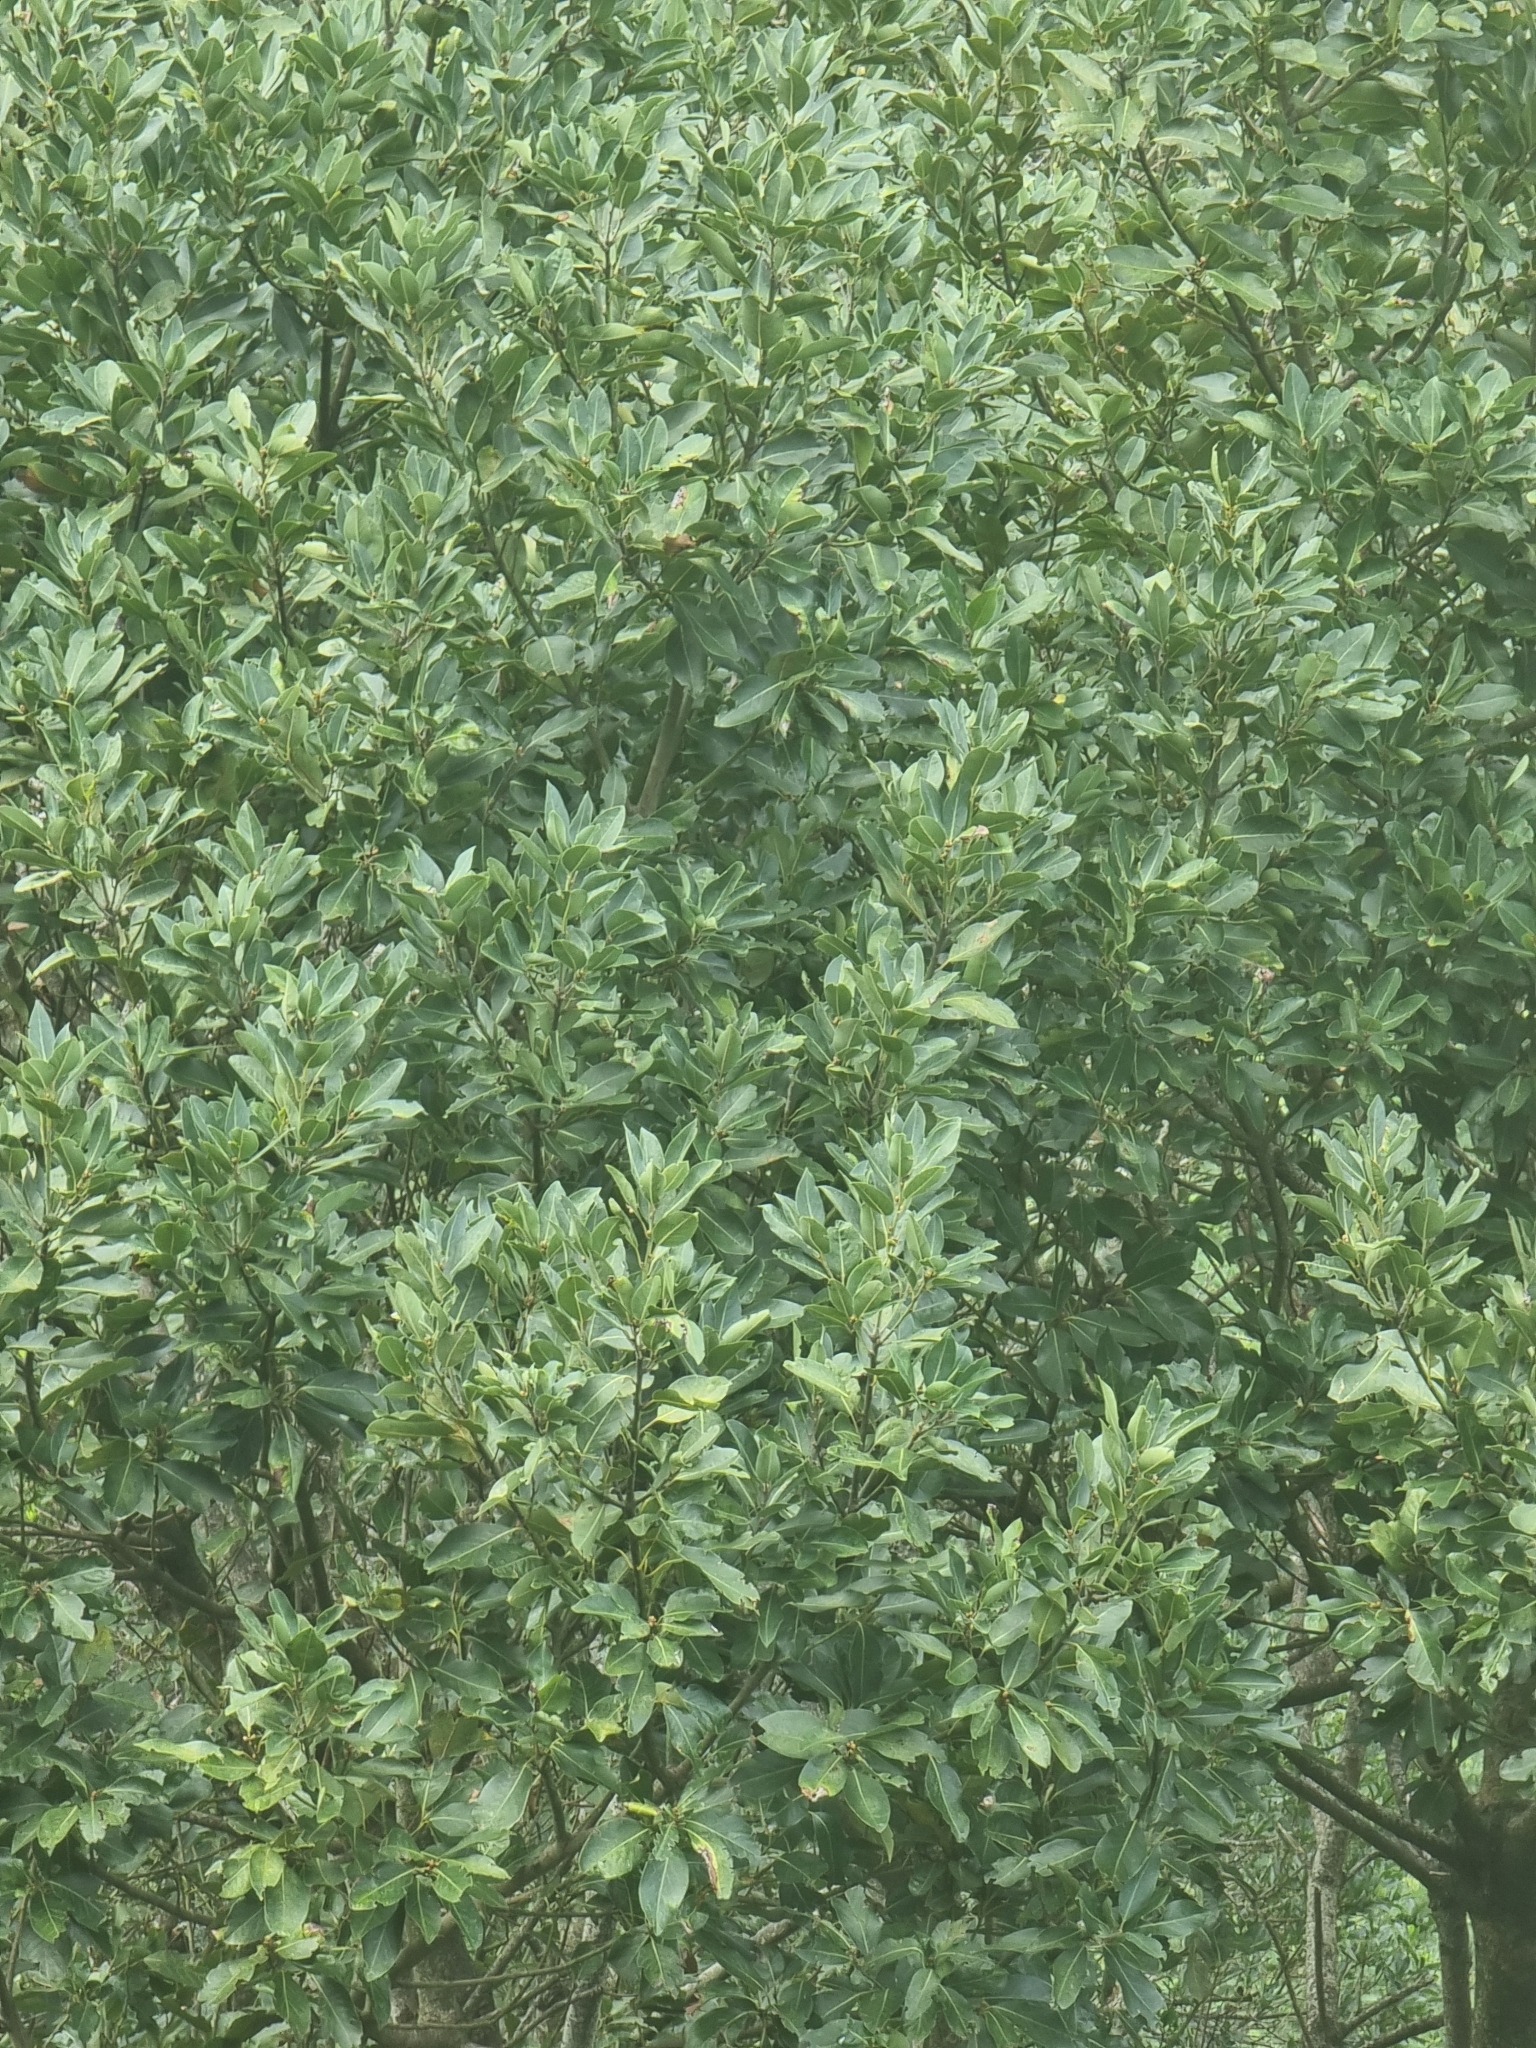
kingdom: Plantae
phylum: Tracheophyta
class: Magnoliopsida
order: Laurales
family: Lauraceae
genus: Laurus
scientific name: Laurus novocanariensis
